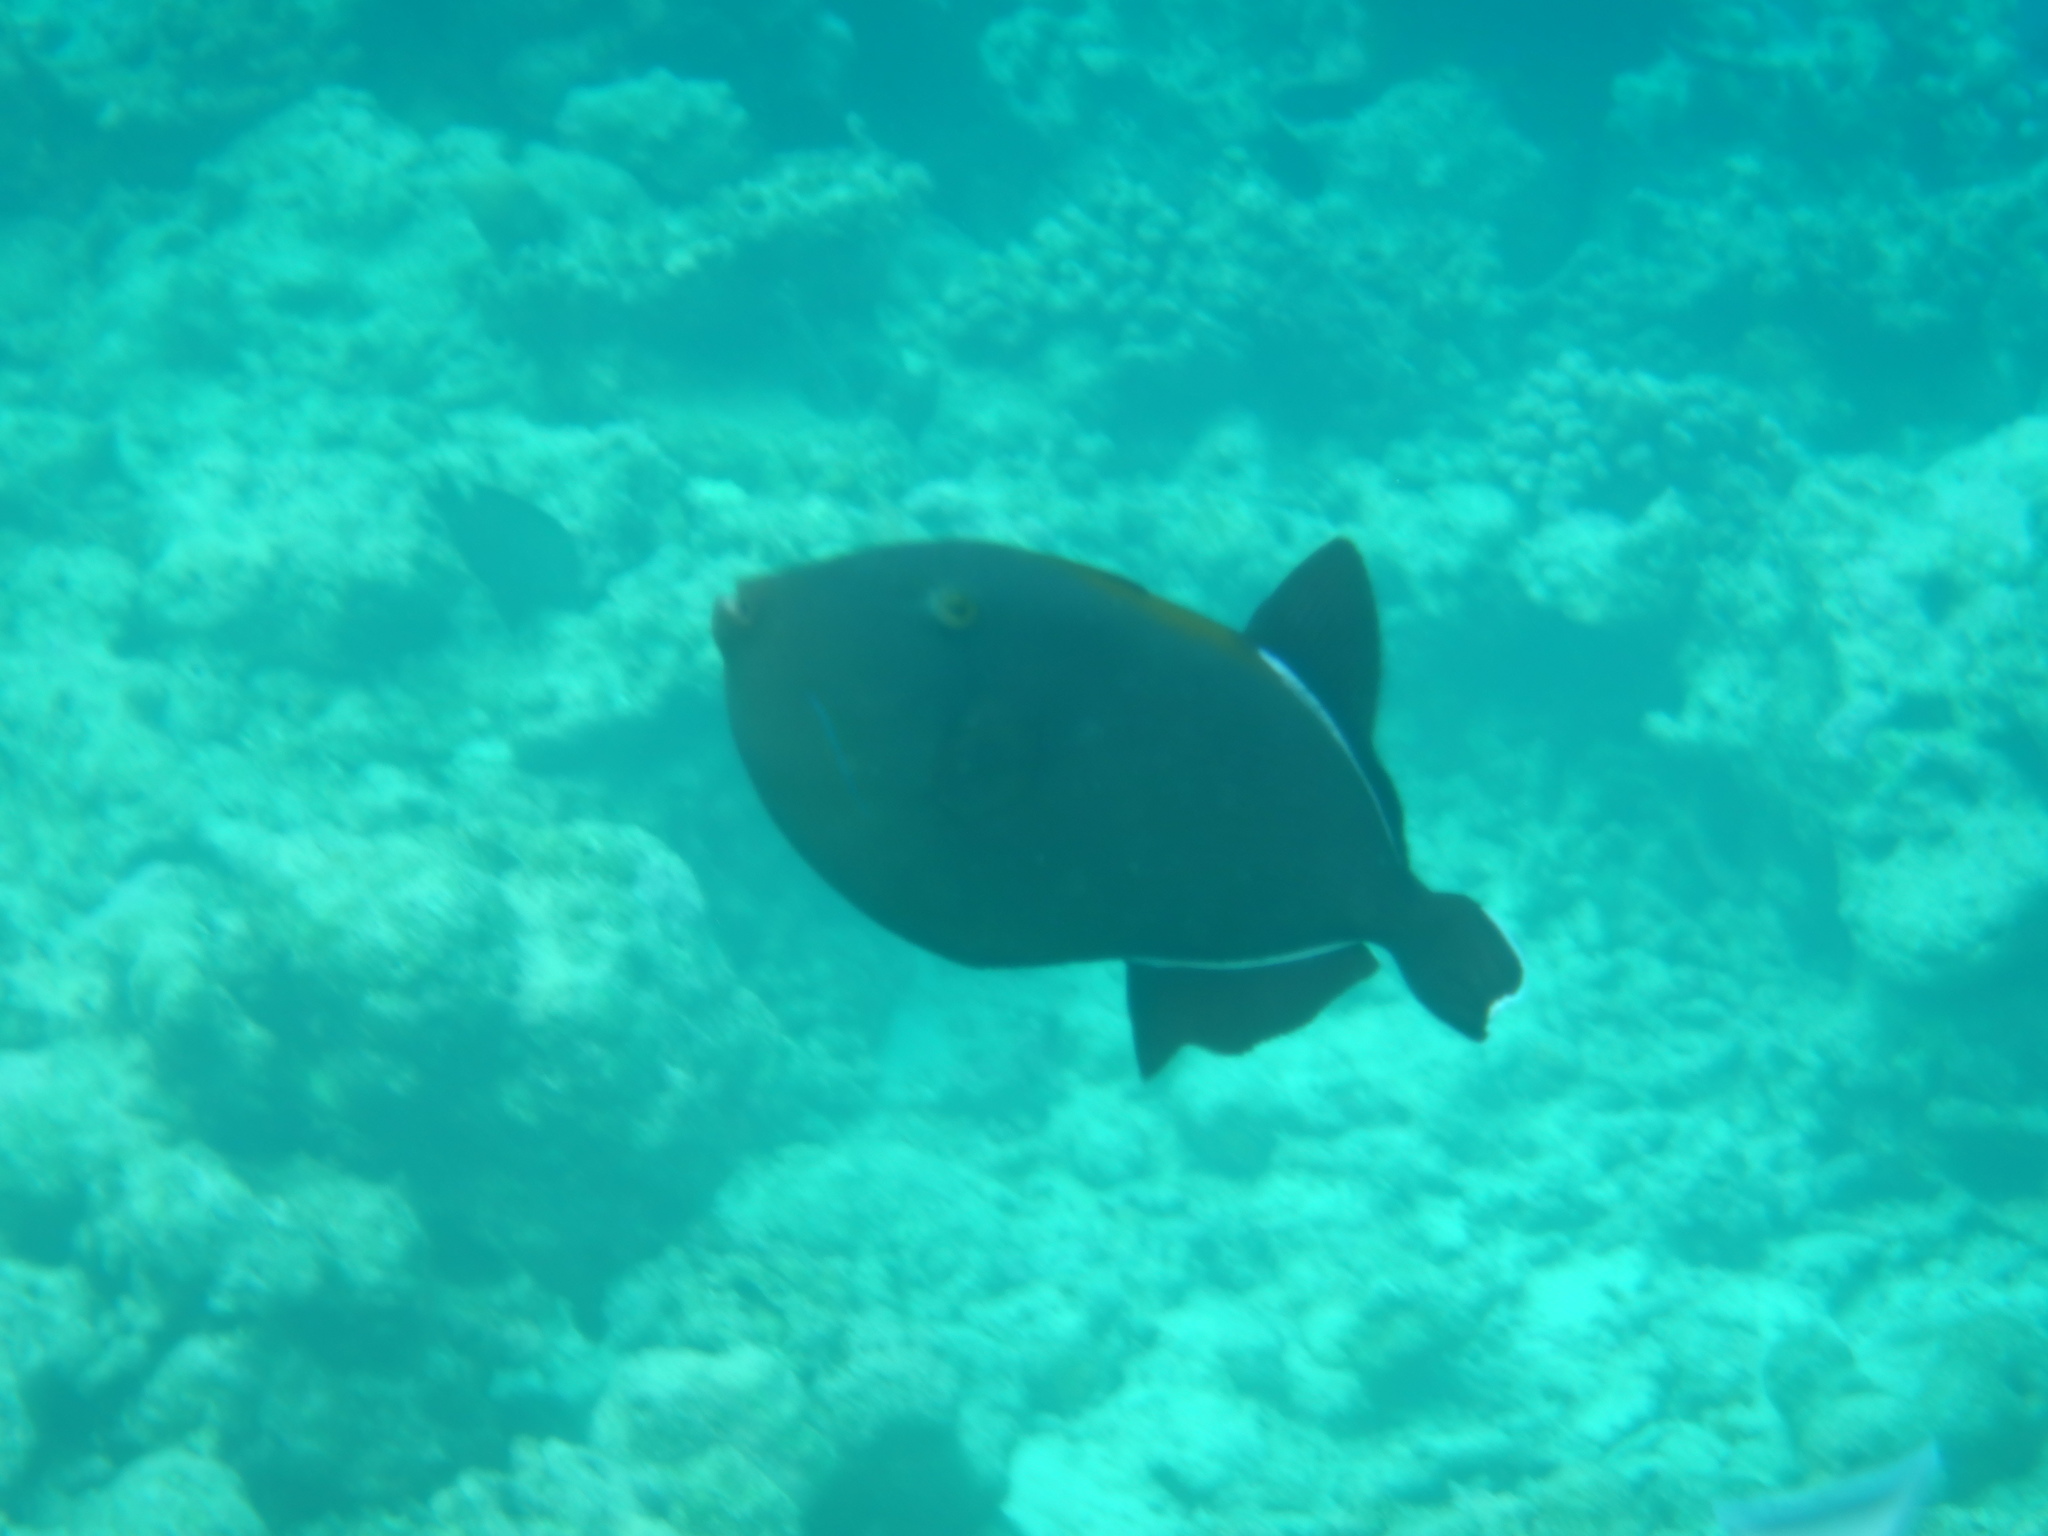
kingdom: Animalia
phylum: Chordata
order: Tetraodontiformes
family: Balistidae
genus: Melichthys
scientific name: Melichthys indicus
